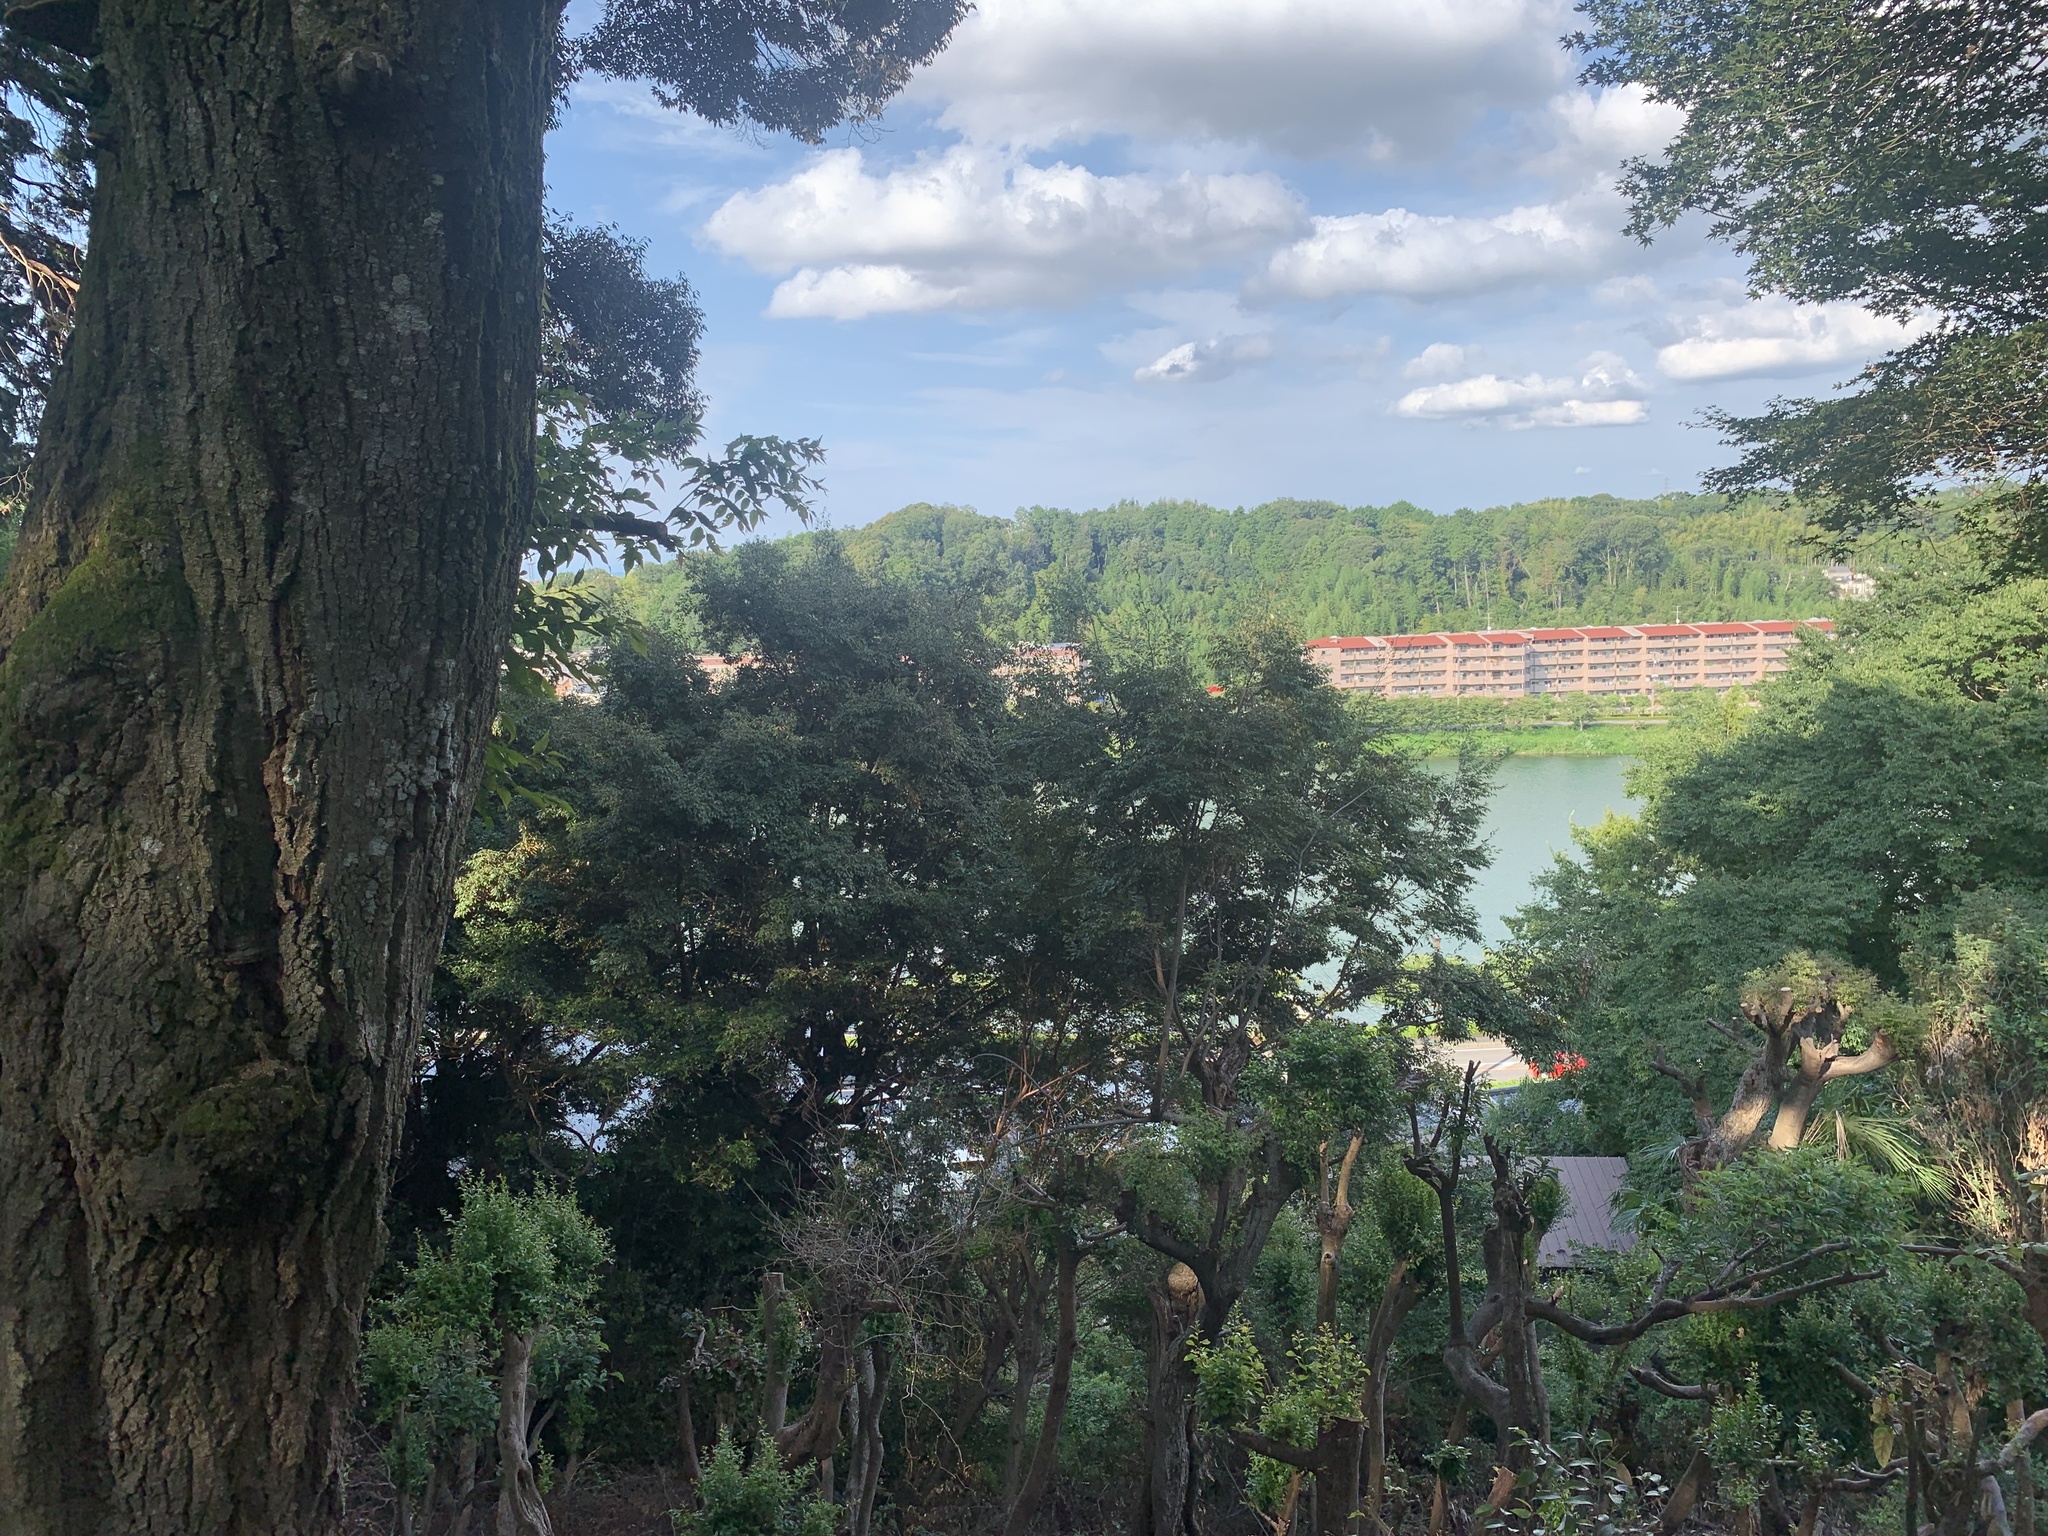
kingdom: Animalia
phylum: Arthropoda
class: Insecta
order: Hemiptera
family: Cicadidae
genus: Meimuna
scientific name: Meimuna opalifera
